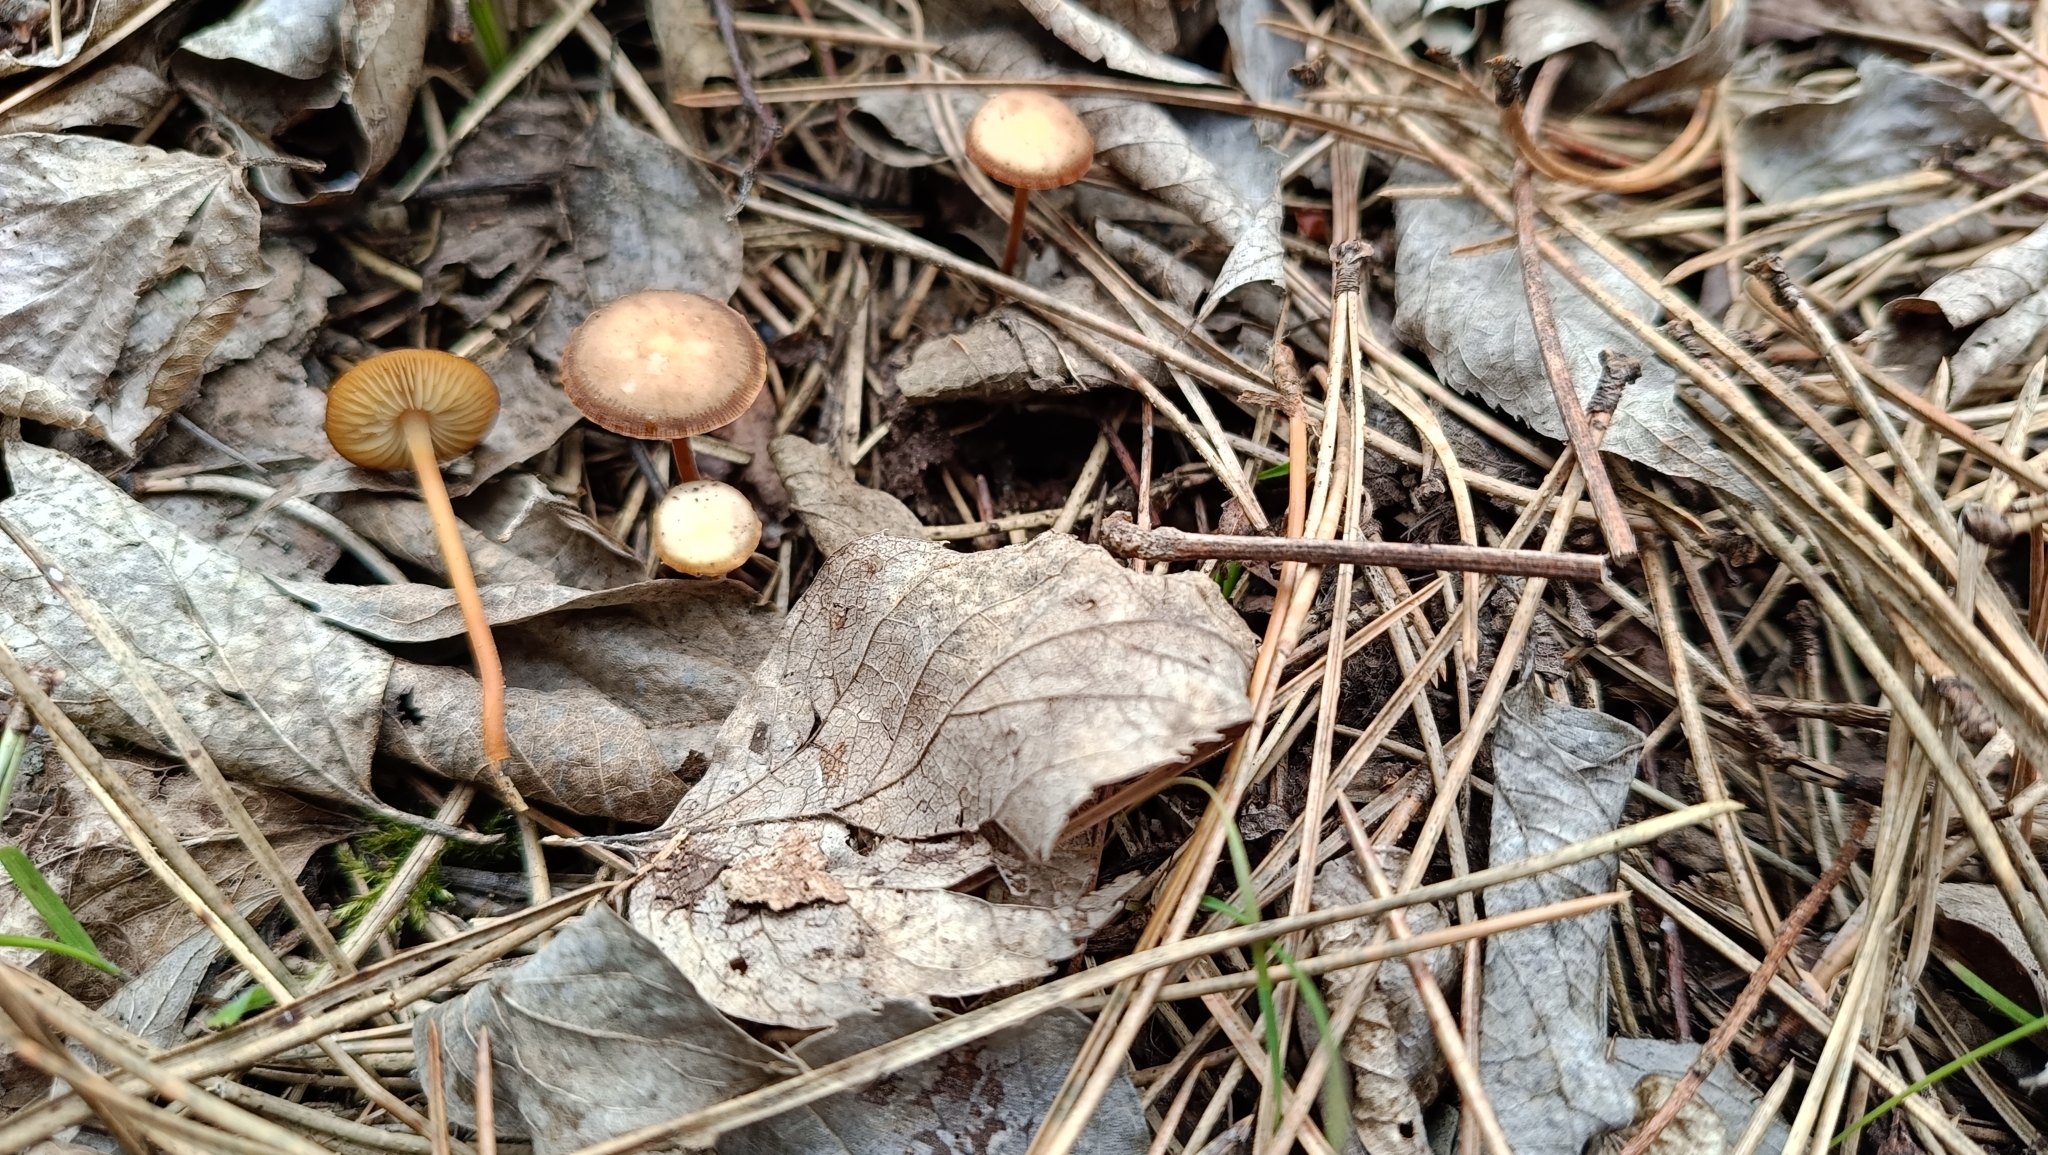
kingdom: Fungi
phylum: Basidiomycota
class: Agaricomycetes
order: Agaricales
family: Physalacriaceae
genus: Strobilurus
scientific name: Strobilurus stephanocystis
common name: Russian conecap
